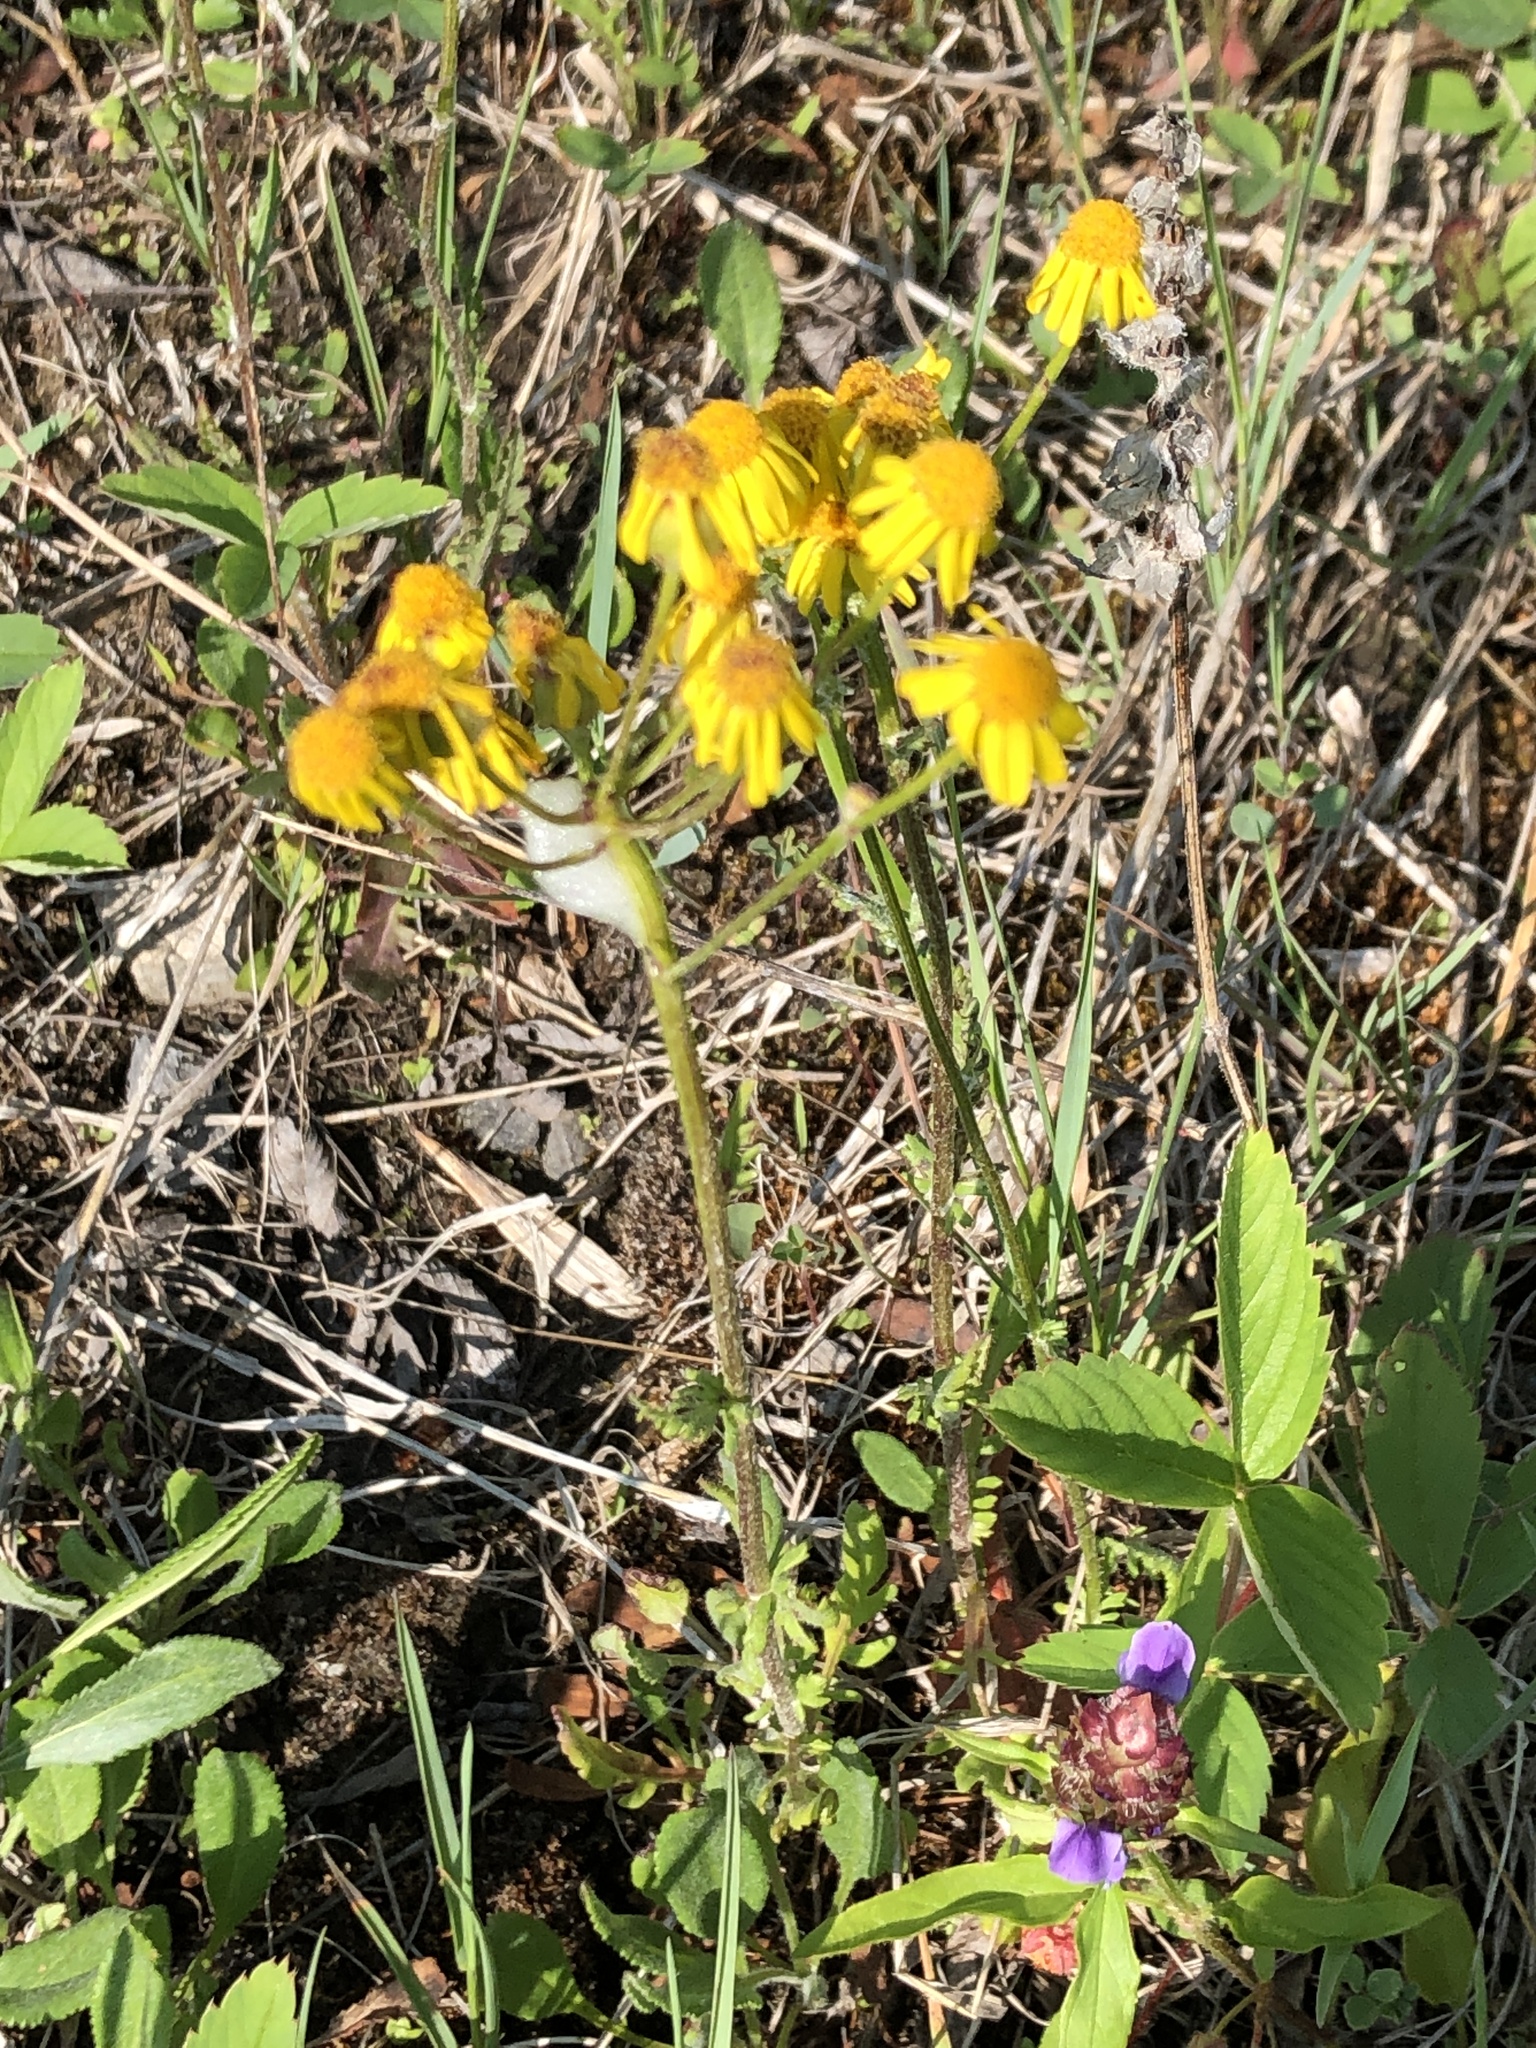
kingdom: Plantae
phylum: Tracheophyta
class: Magnoliopsida
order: Asterales
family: Asteraceae
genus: Packera
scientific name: Packera paupercula
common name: Balsam groundsel
